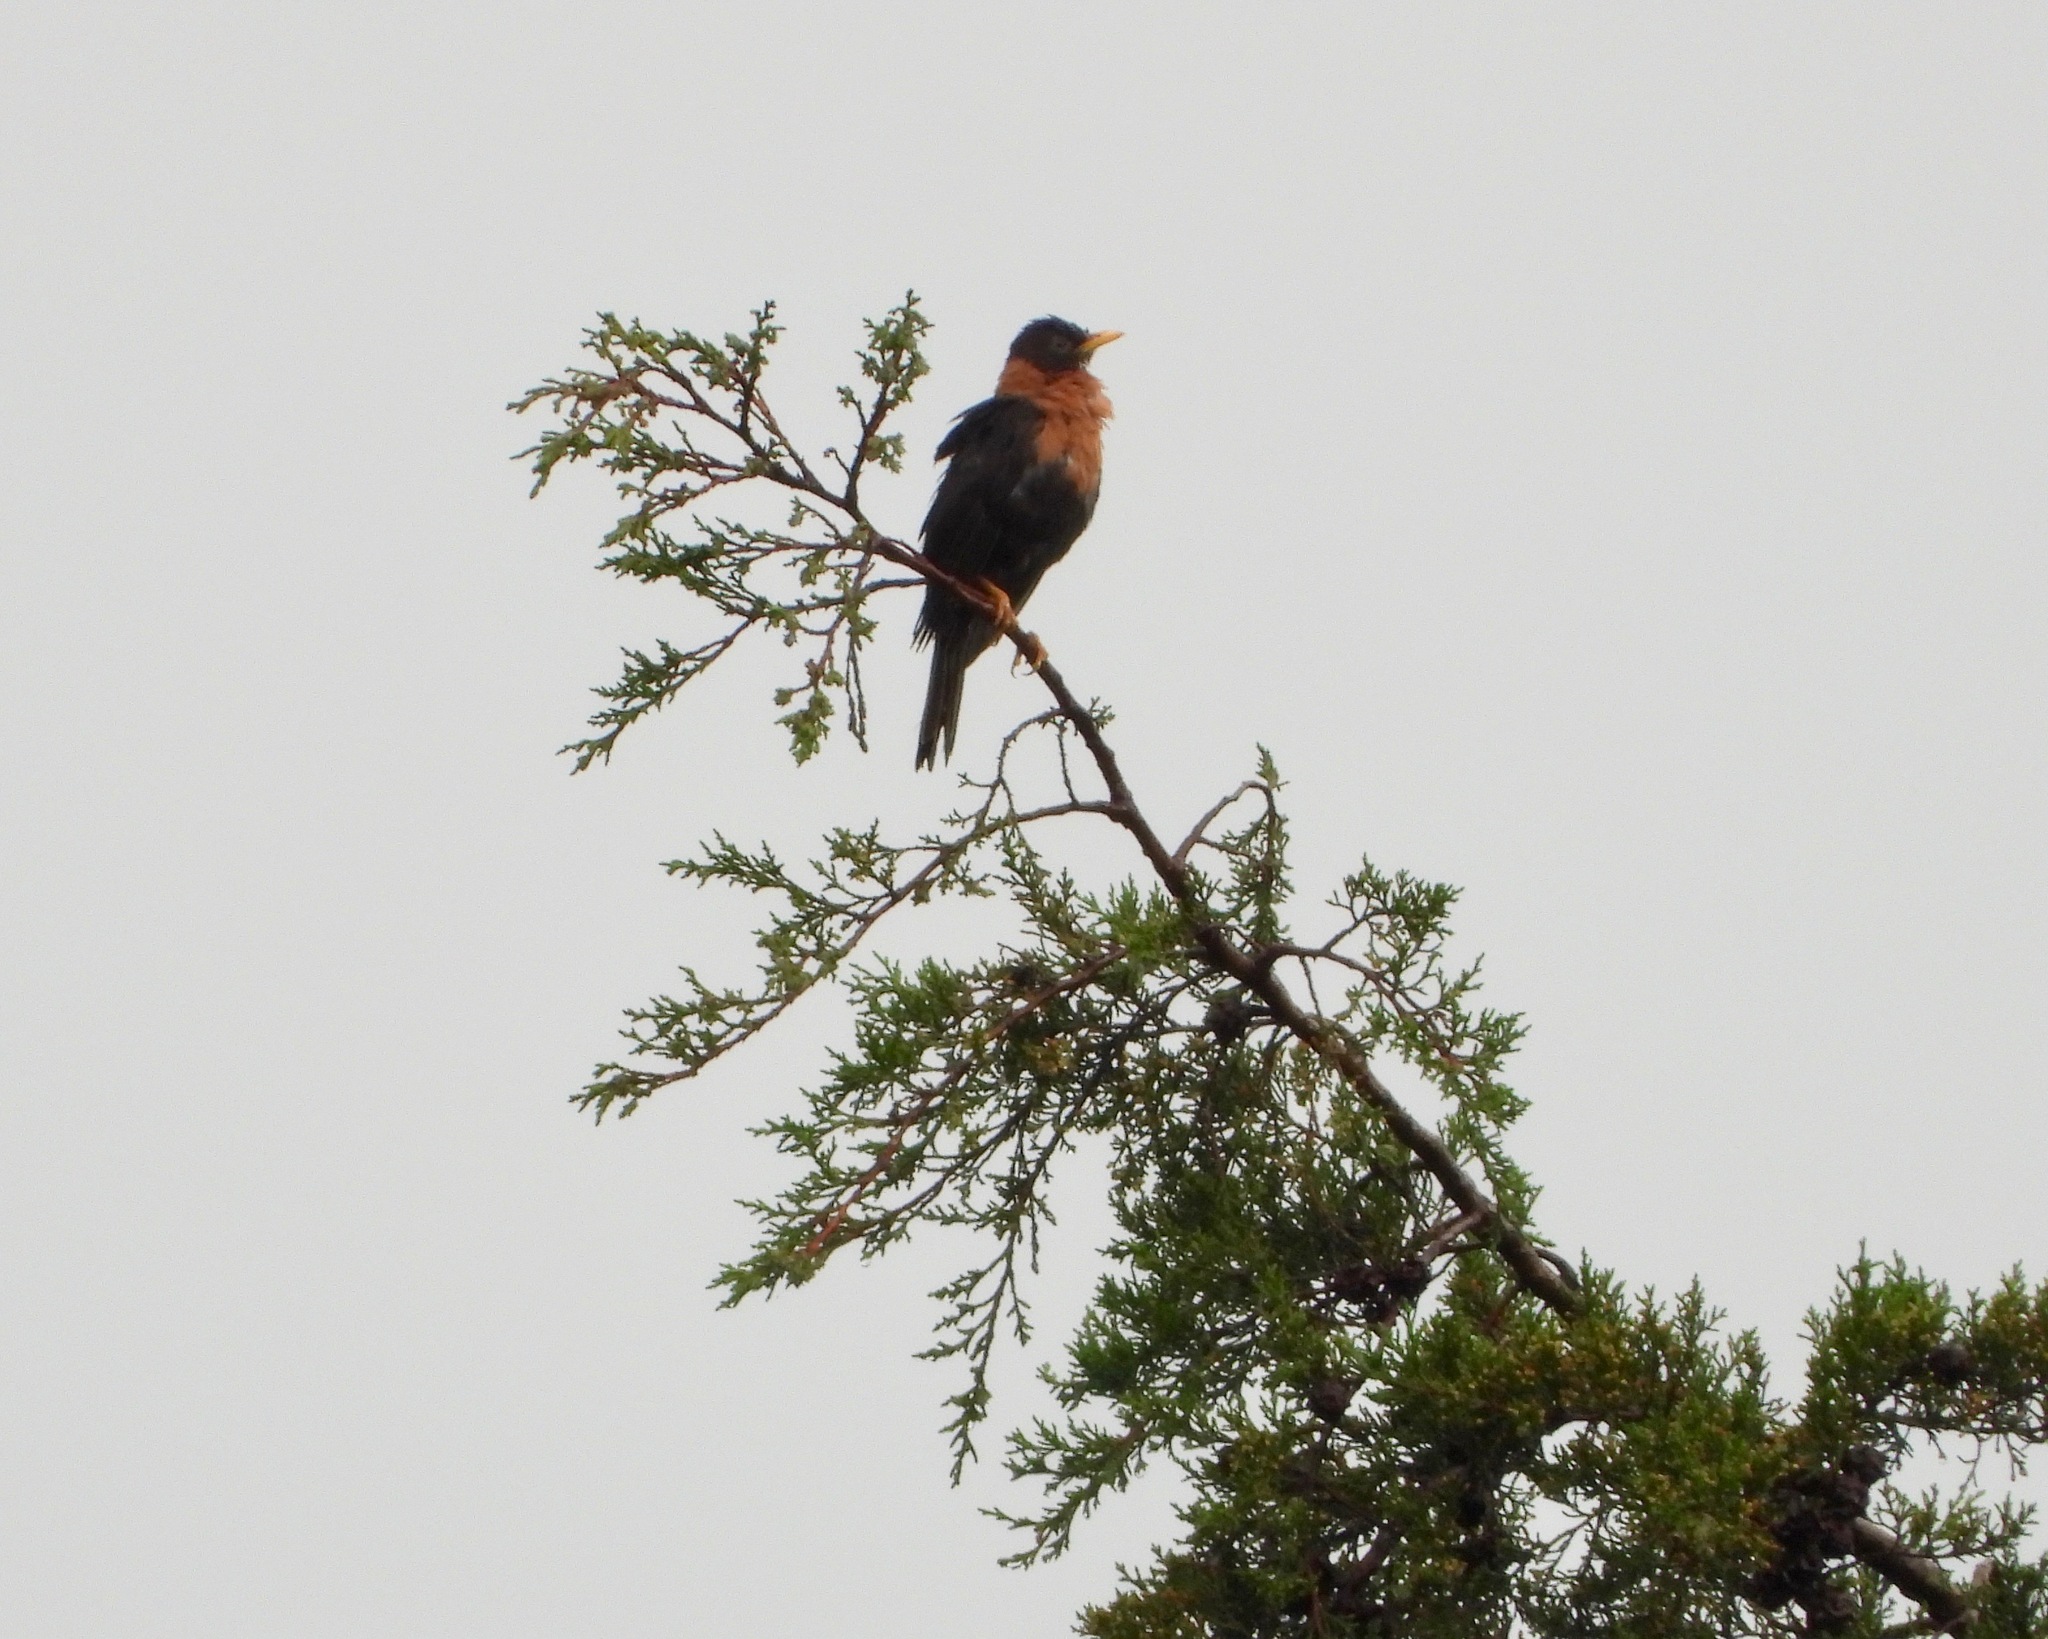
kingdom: Animalia
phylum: Chordata
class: Aves
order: Passeriformes
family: Turdidae
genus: Turdus
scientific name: Turdus rufitorques
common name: Rufous-collared thrush
